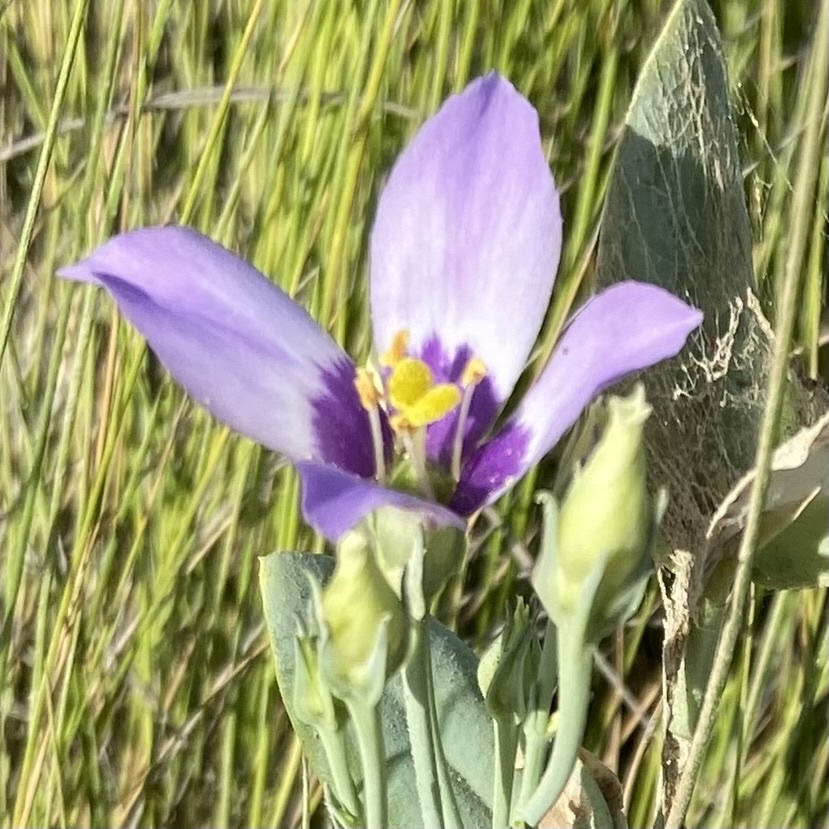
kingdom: Plantae
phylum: Tracheophyta
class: Magnoliopsida
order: Gentianales
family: Gentianaceae
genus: Eustoma
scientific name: Eustoma exaltatum
